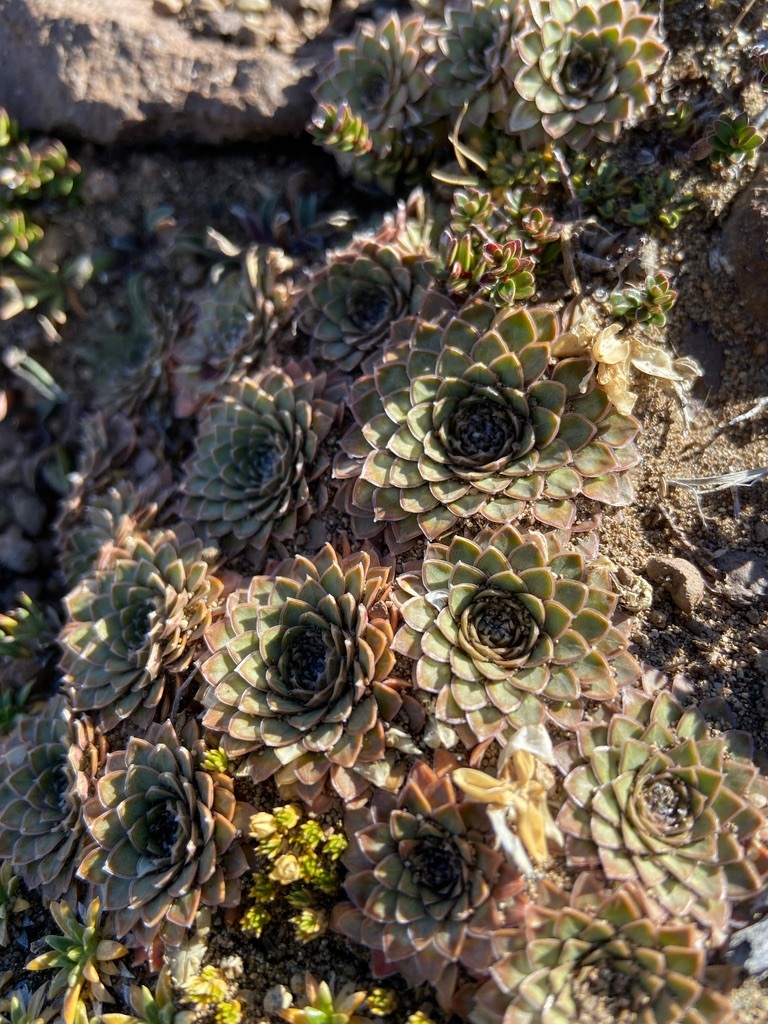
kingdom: Plantae
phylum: Tracheophyta
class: Magnoliopsida
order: Malpighiales
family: Violaceae
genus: Viola
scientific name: Viola auricolor
